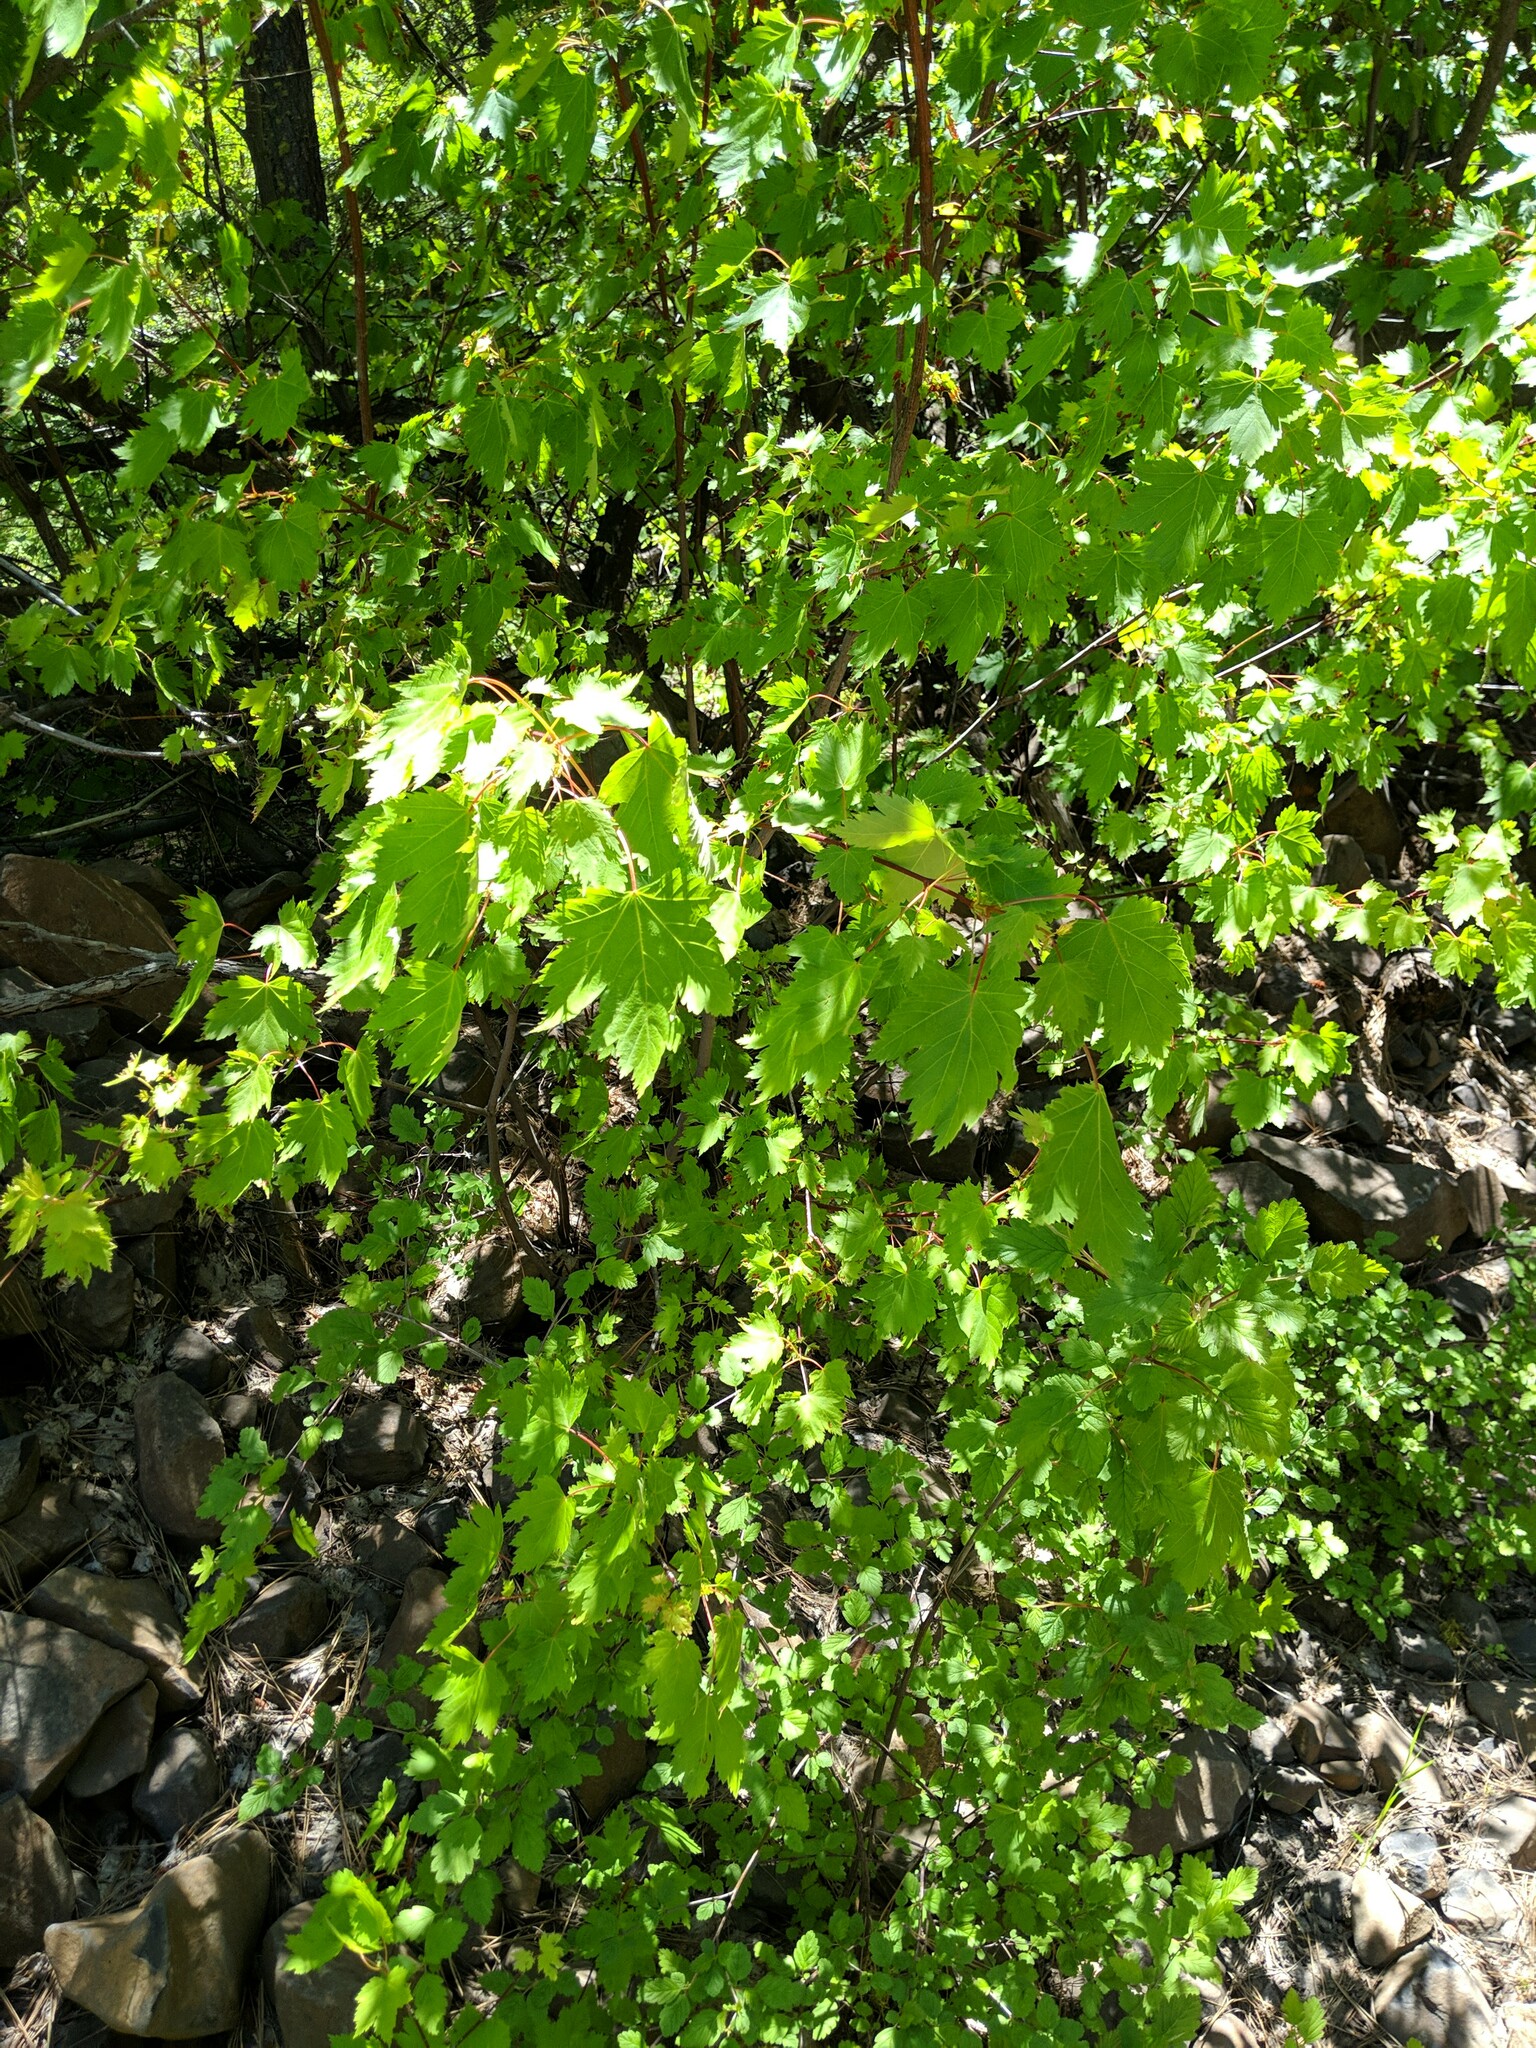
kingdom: Plantae
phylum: Tracheophyta
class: Magnoliopsida
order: Sapindales
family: Sapindaceae
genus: Acer
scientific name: Acer glabrum
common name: Rocky mountain maple
